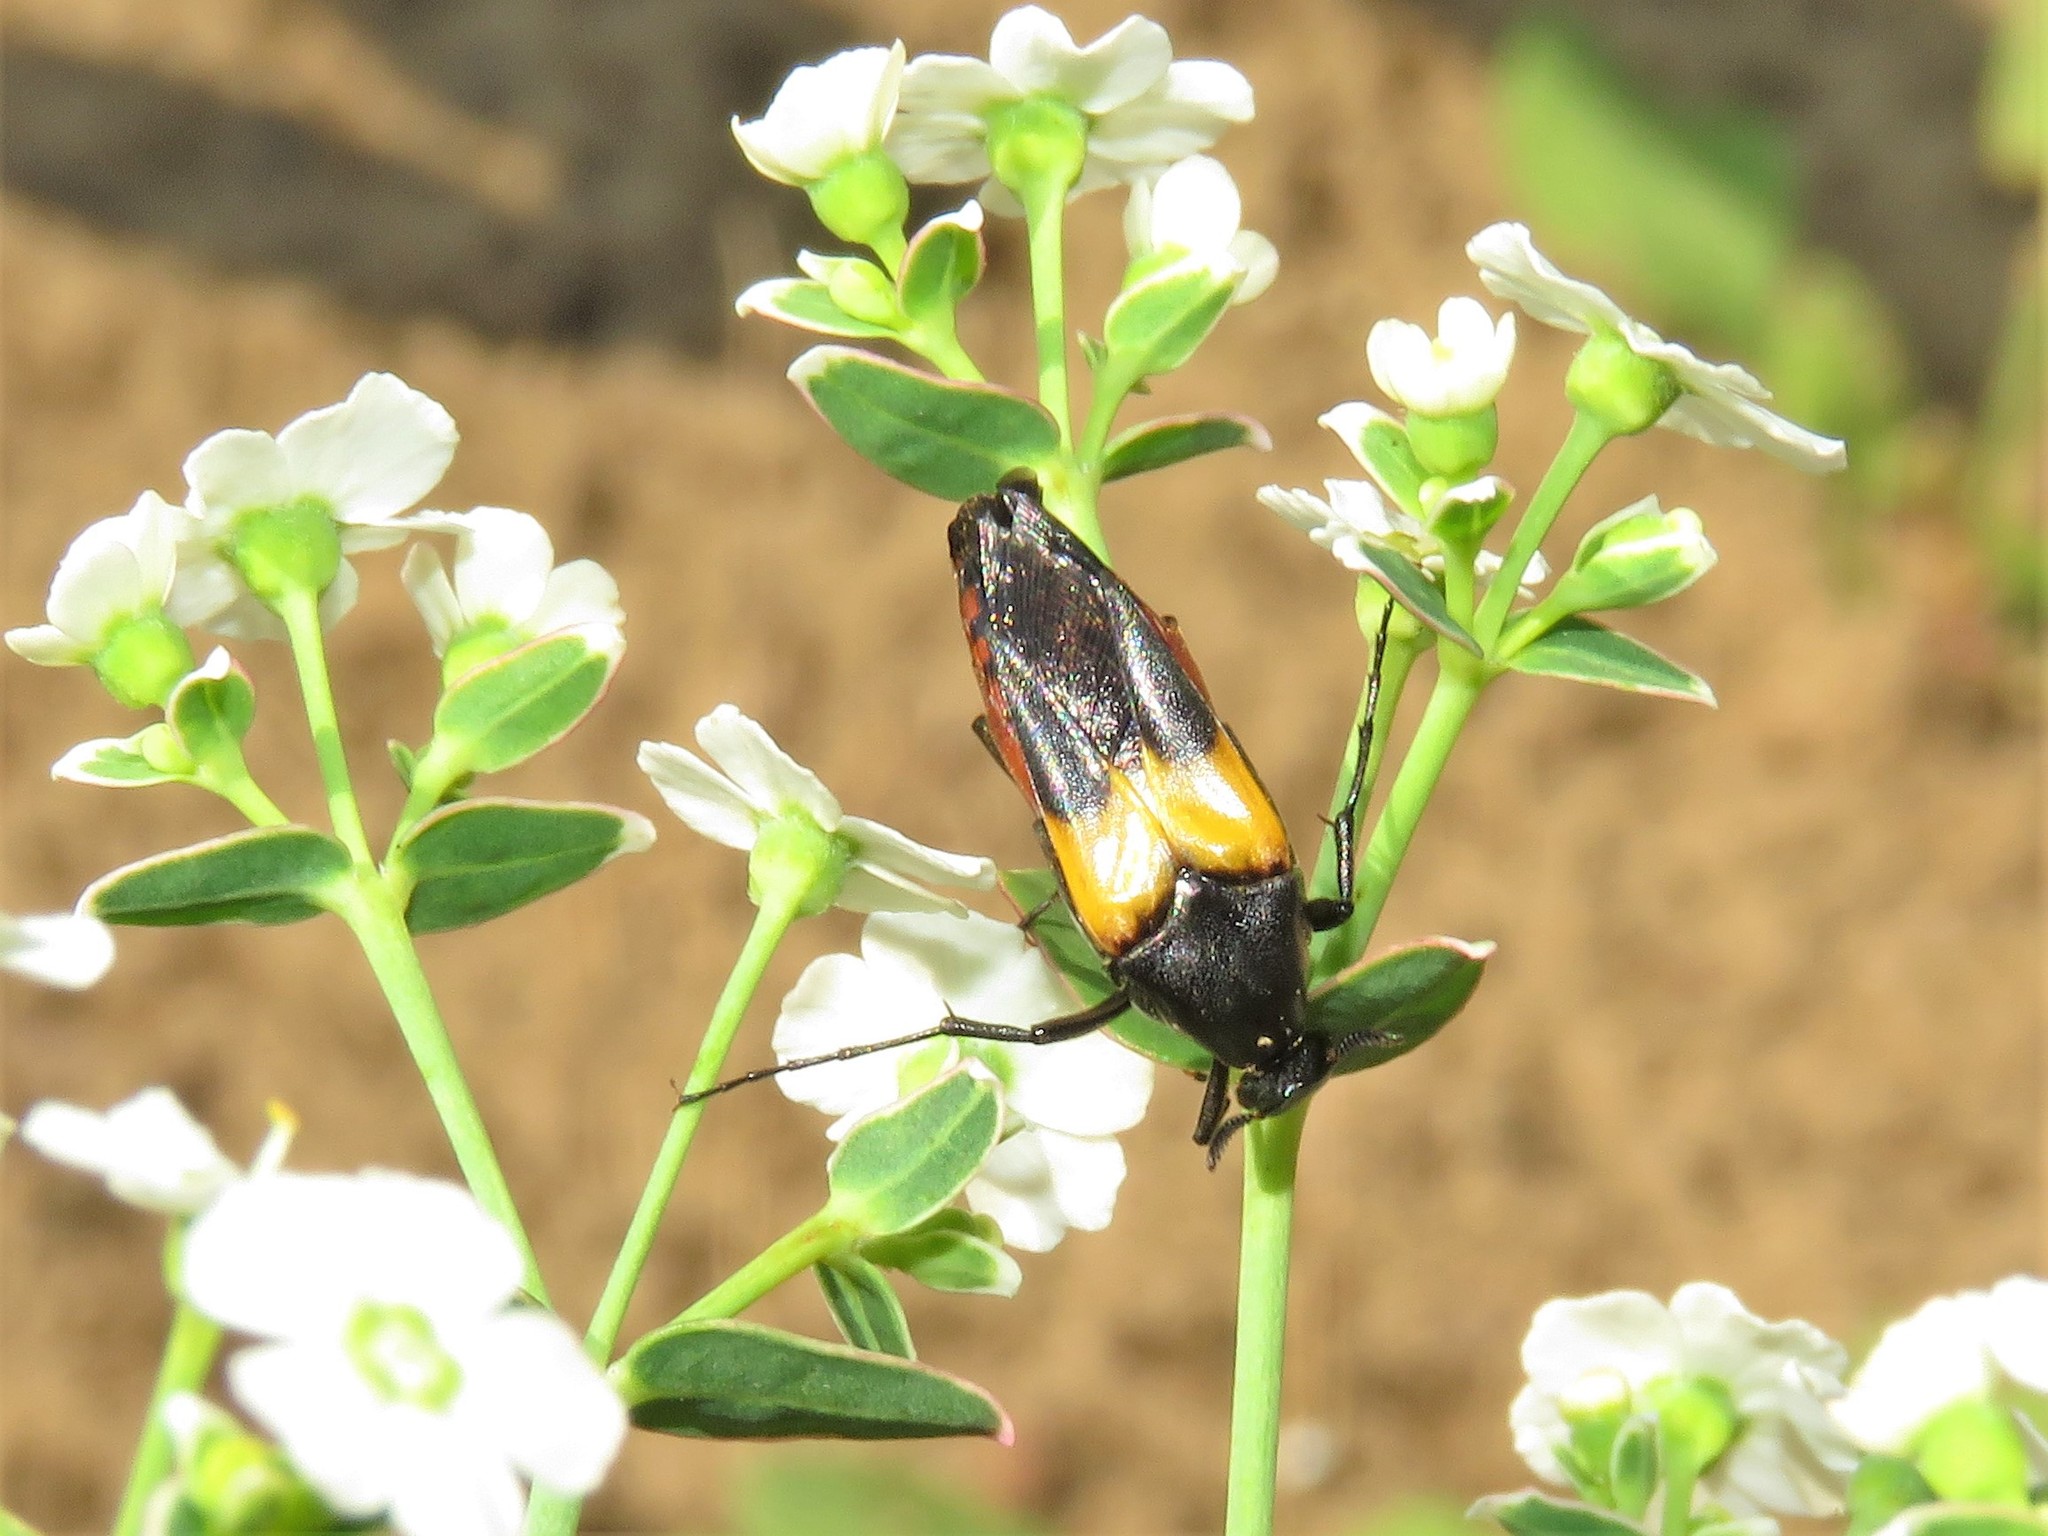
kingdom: Animalia
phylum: Arthropoda
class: Insecta
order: Coleoptera
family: Ripiphoridae
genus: Macrosiagon
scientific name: Macrosiagon flavipennis
